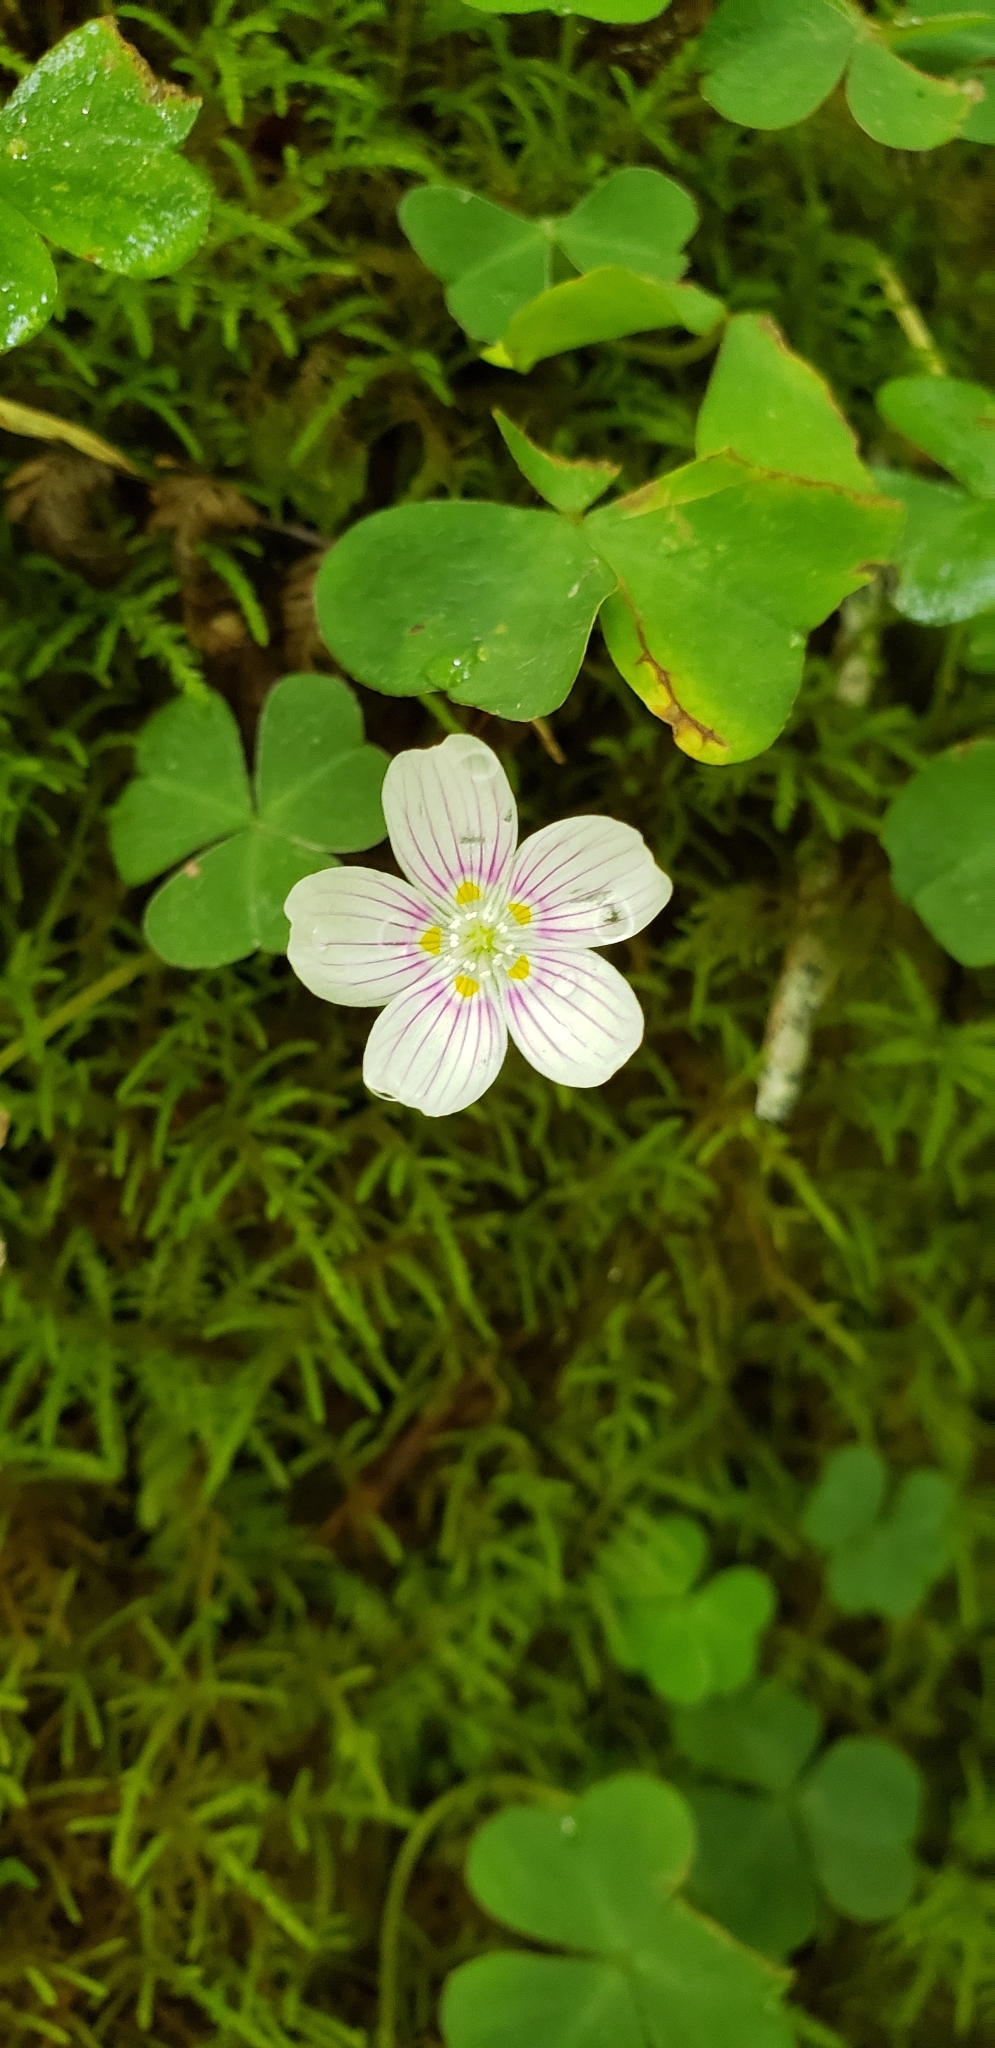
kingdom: Plantae
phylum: Tracheophyta
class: Magnoliopsida
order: Oxalidales
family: Oxalidaceae
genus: Oxalis
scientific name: Oxalis montana
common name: American wood-sorrel
